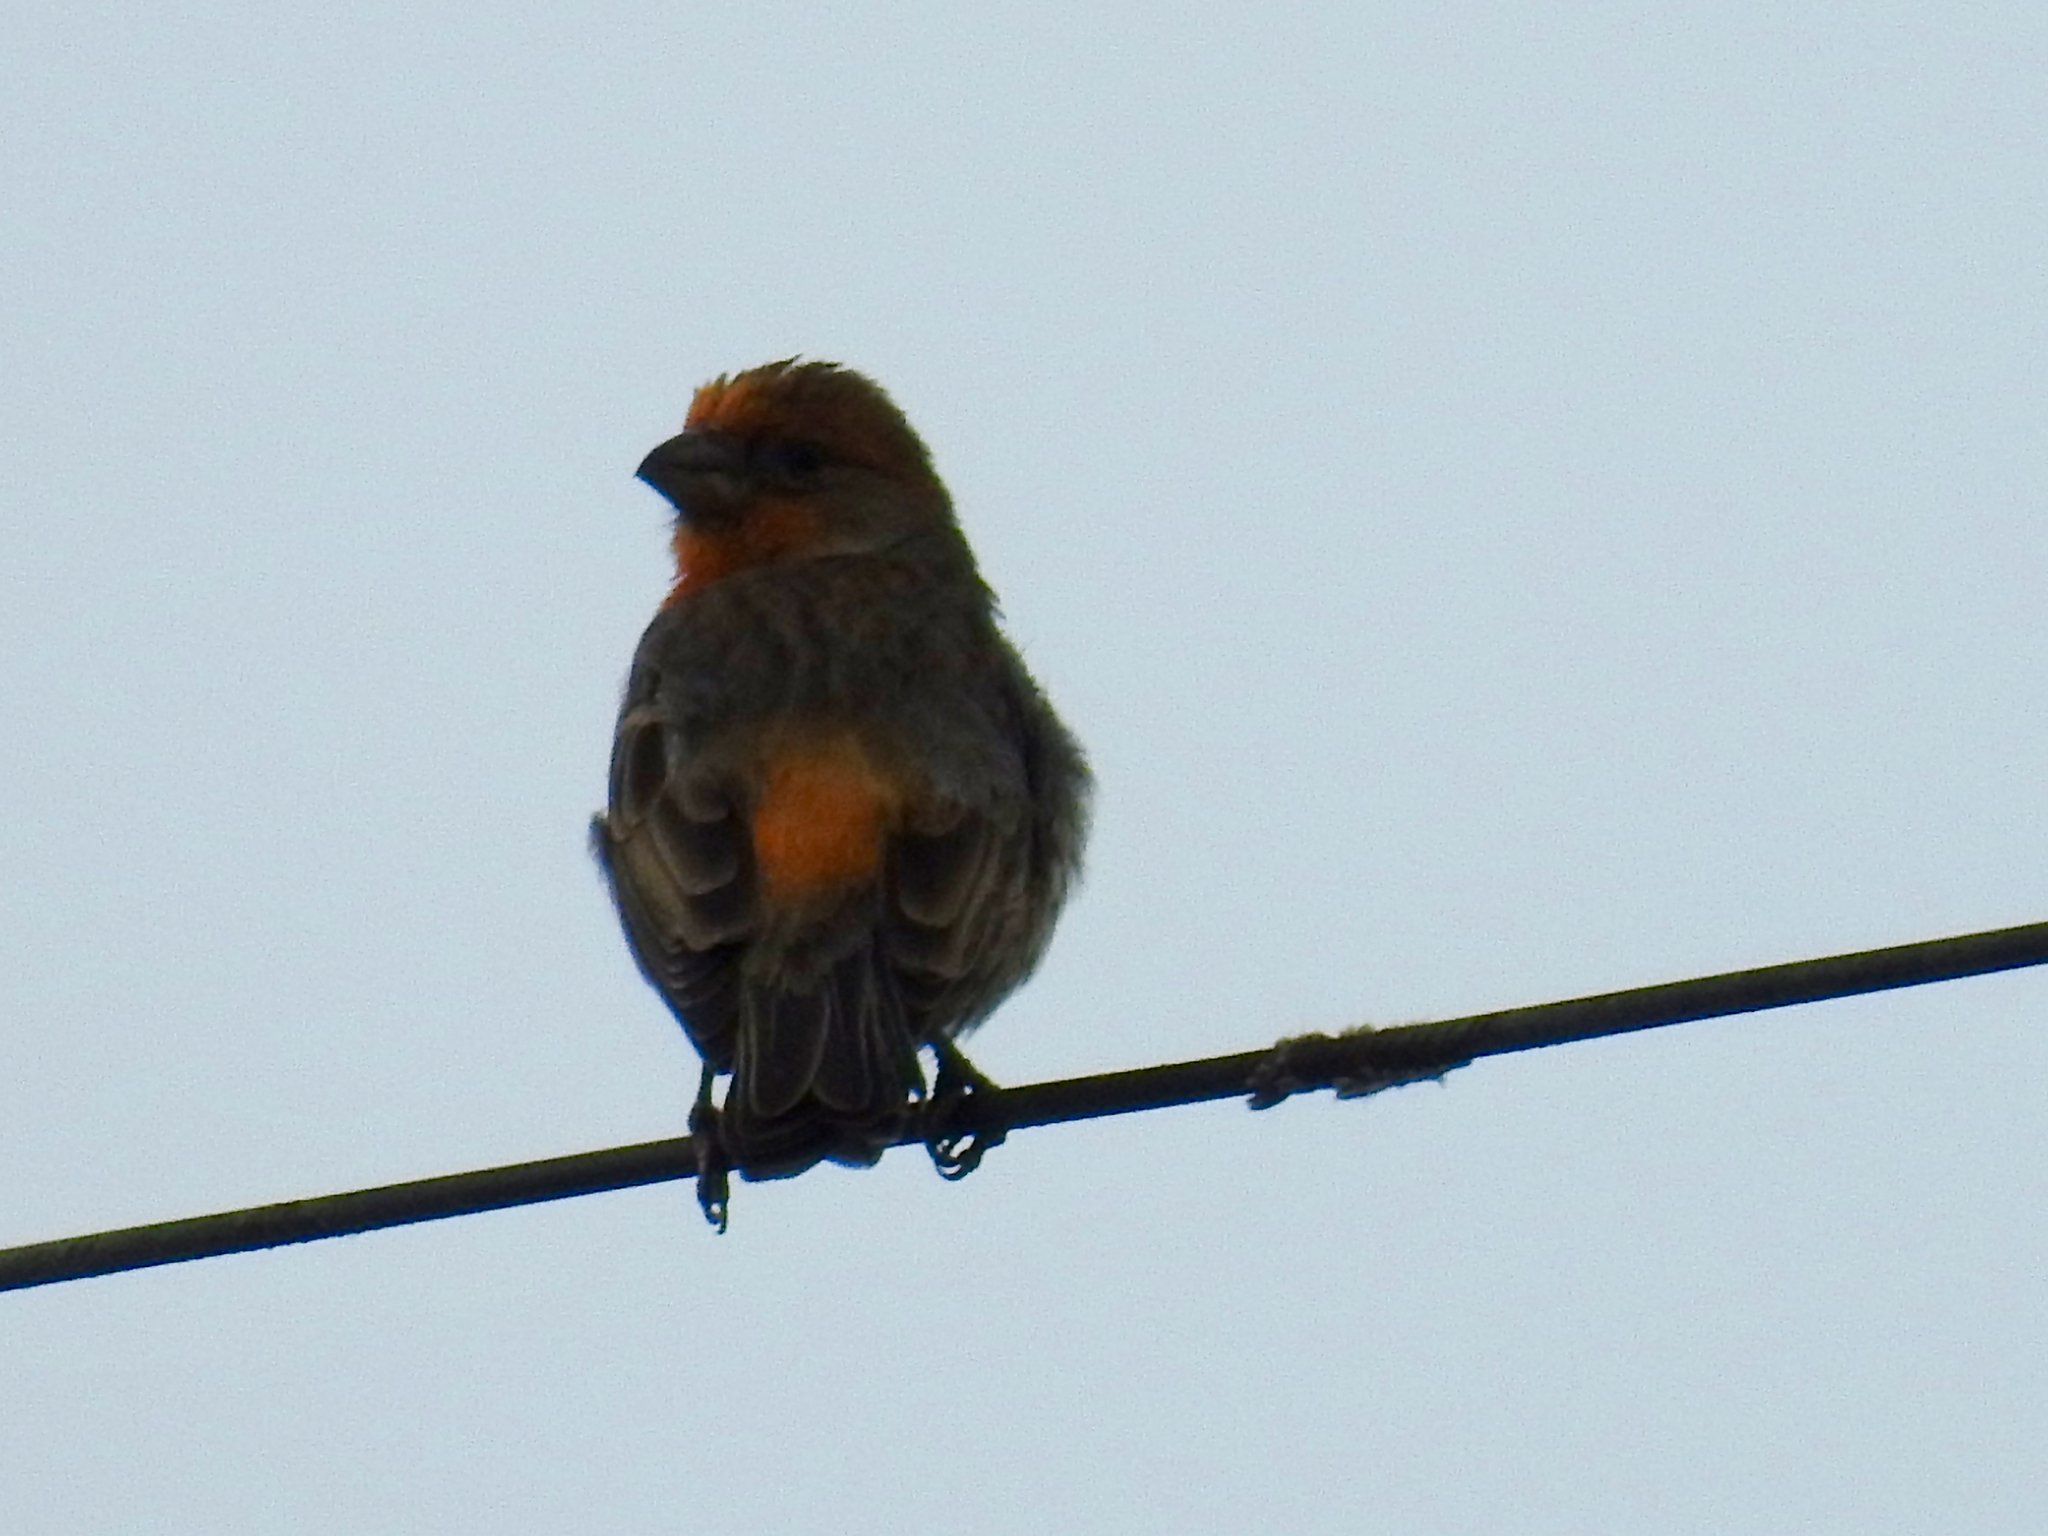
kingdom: Animalia
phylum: Chordata
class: Aves
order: Passeriformes
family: Fringillidae
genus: Haemorhous
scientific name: Haemorhous mexicanus
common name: House finch
